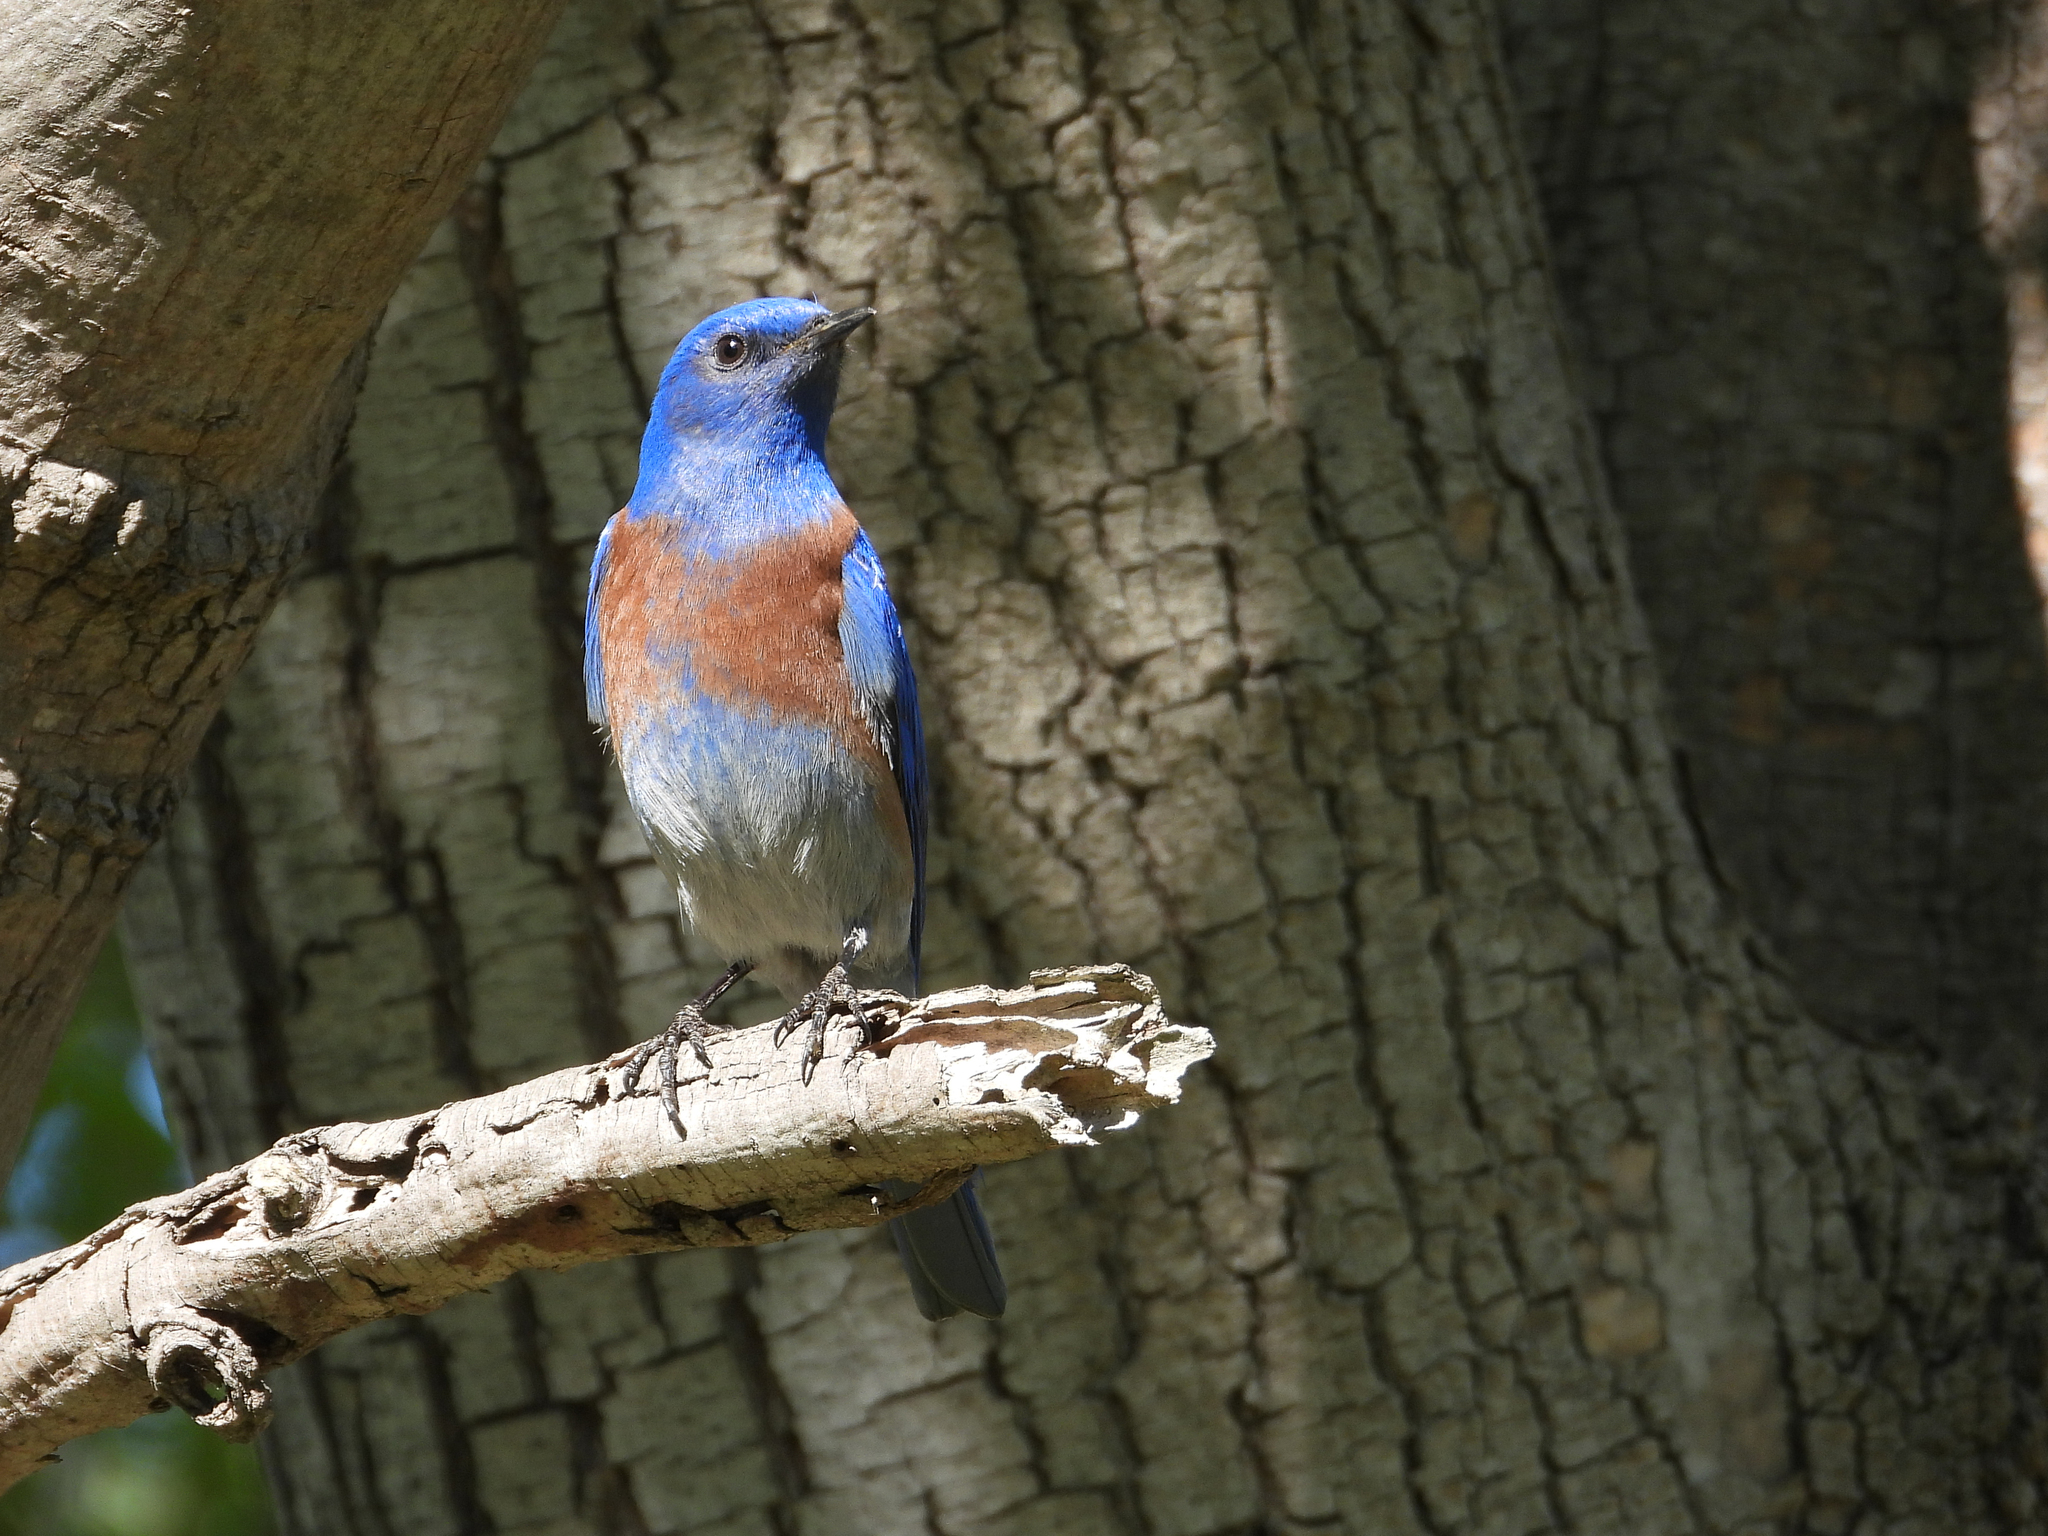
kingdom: Animalia
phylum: Chordata
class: Aves
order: Passeriformes
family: Turdidae
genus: Sialia
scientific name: Sialia mexicana
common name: Western bluebird
